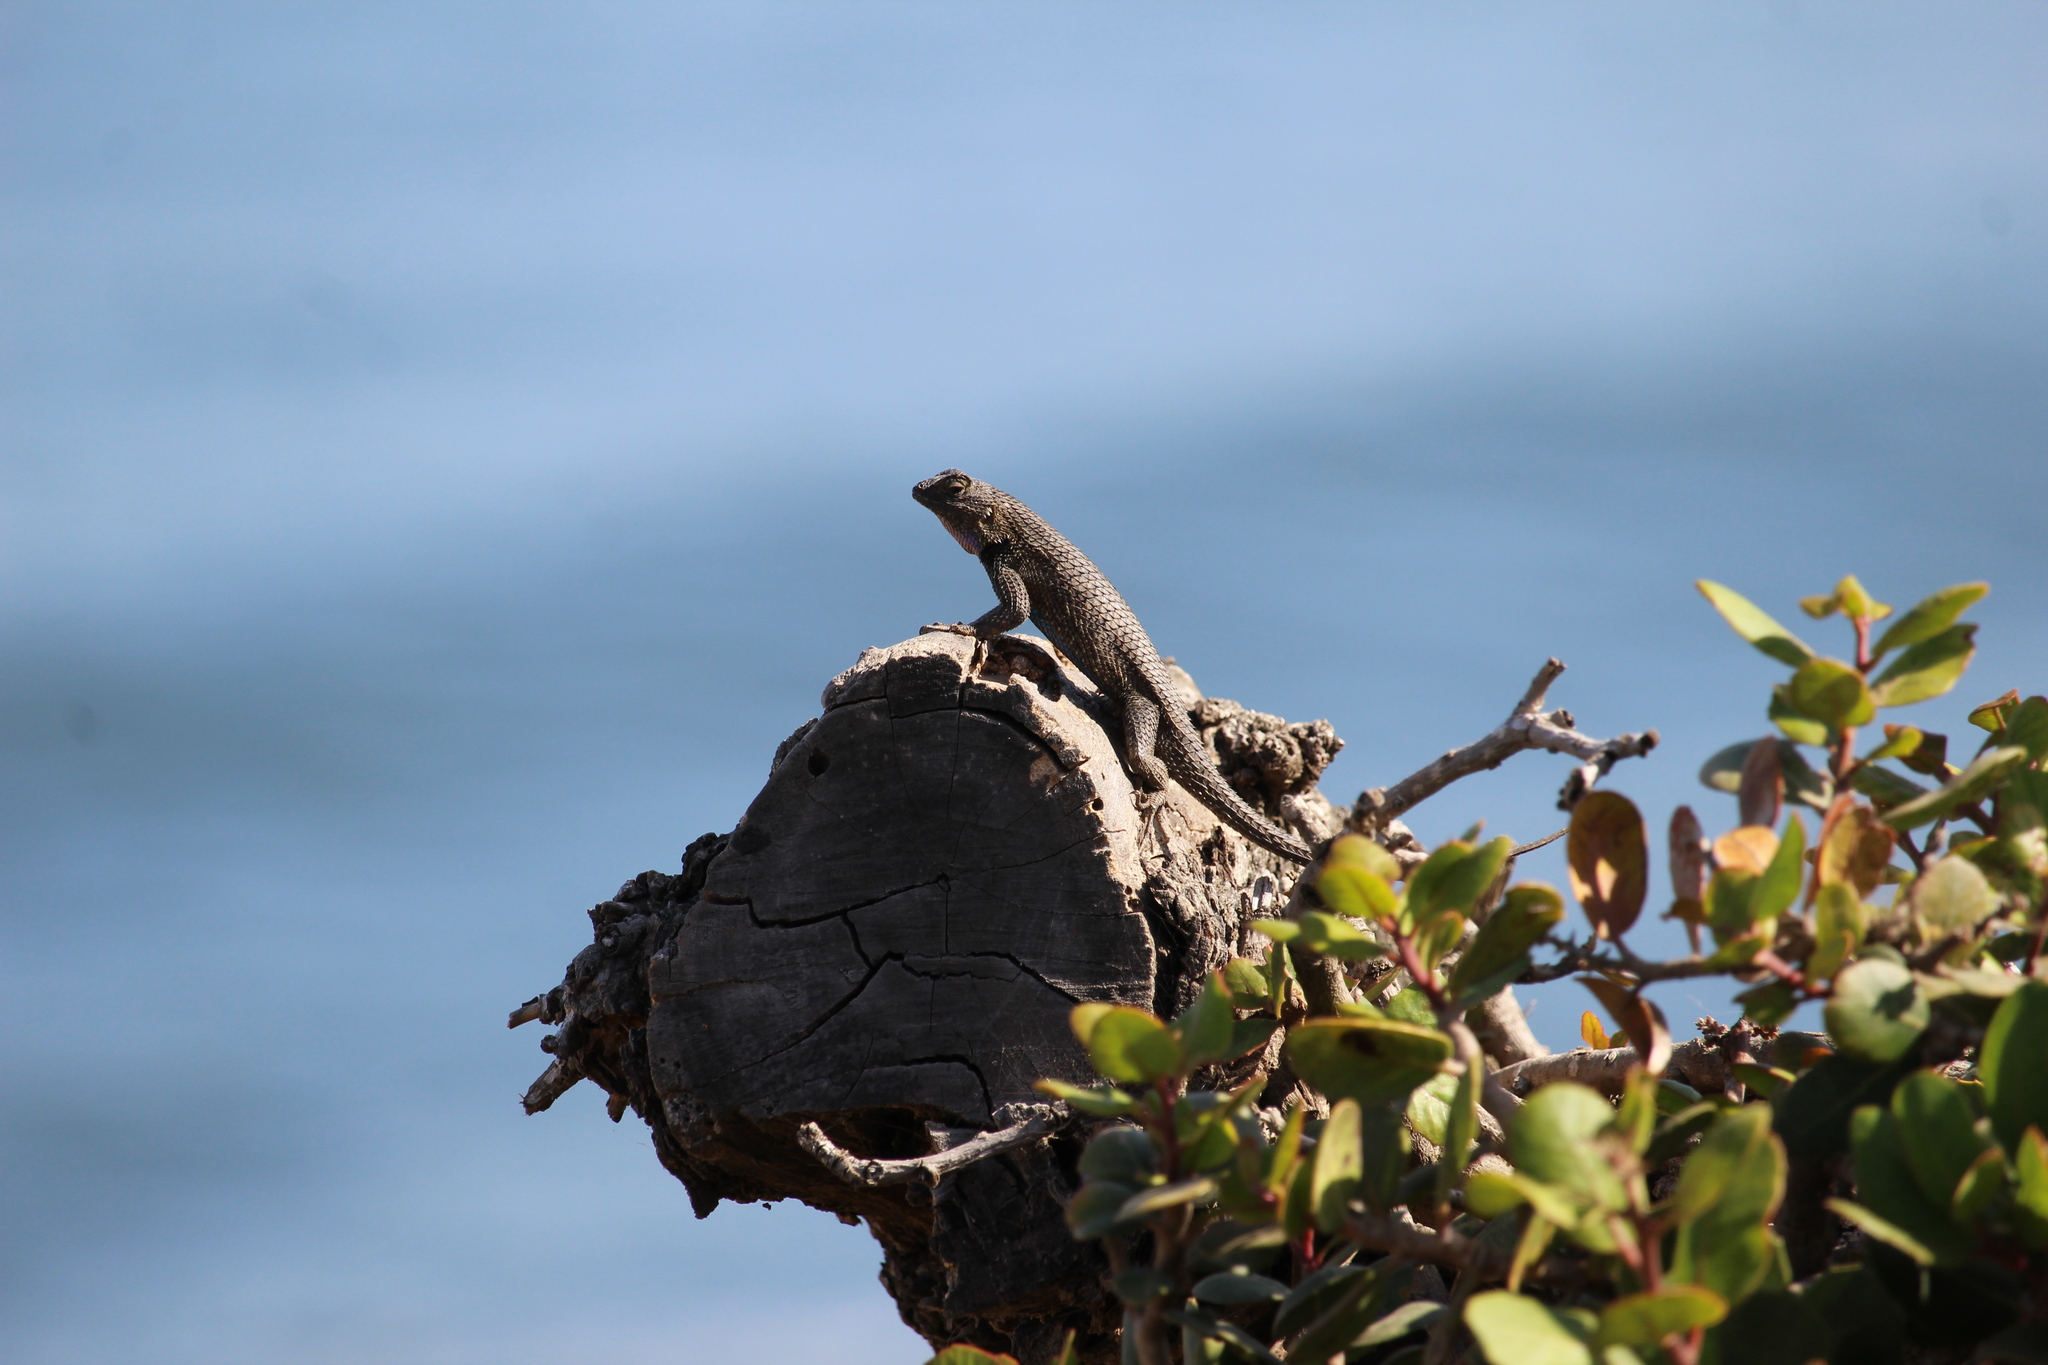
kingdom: Animalia
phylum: Chordata
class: Squamata
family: Phrynosomatidae
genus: Sceloporus
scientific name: Sceloporus occidentalis
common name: Western fence lizard
